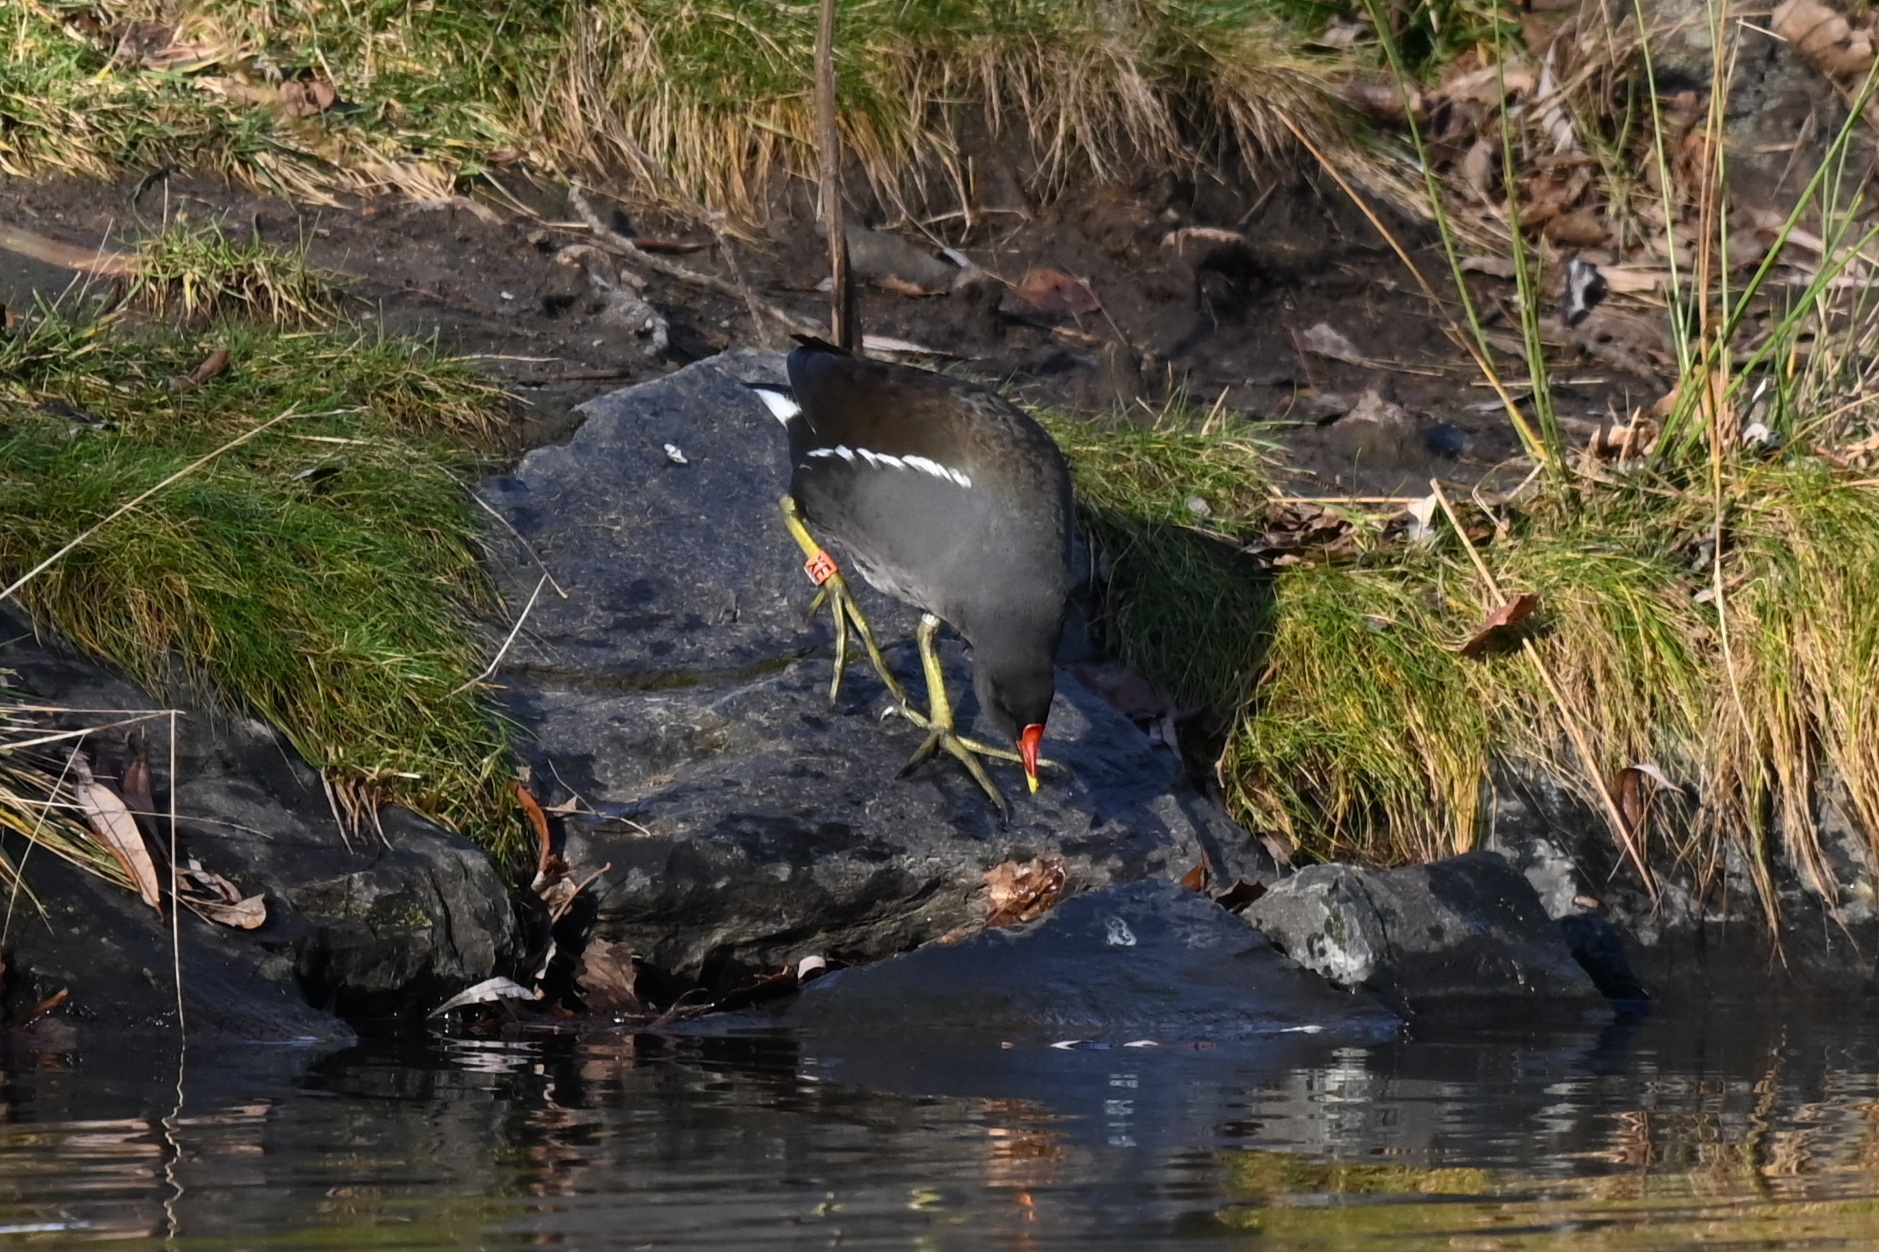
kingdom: Animalia
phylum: Chordata
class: Aves
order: Gruiformes
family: Rallidae
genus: Gallinula
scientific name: Gallinula chloropus
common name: Common moorhen
